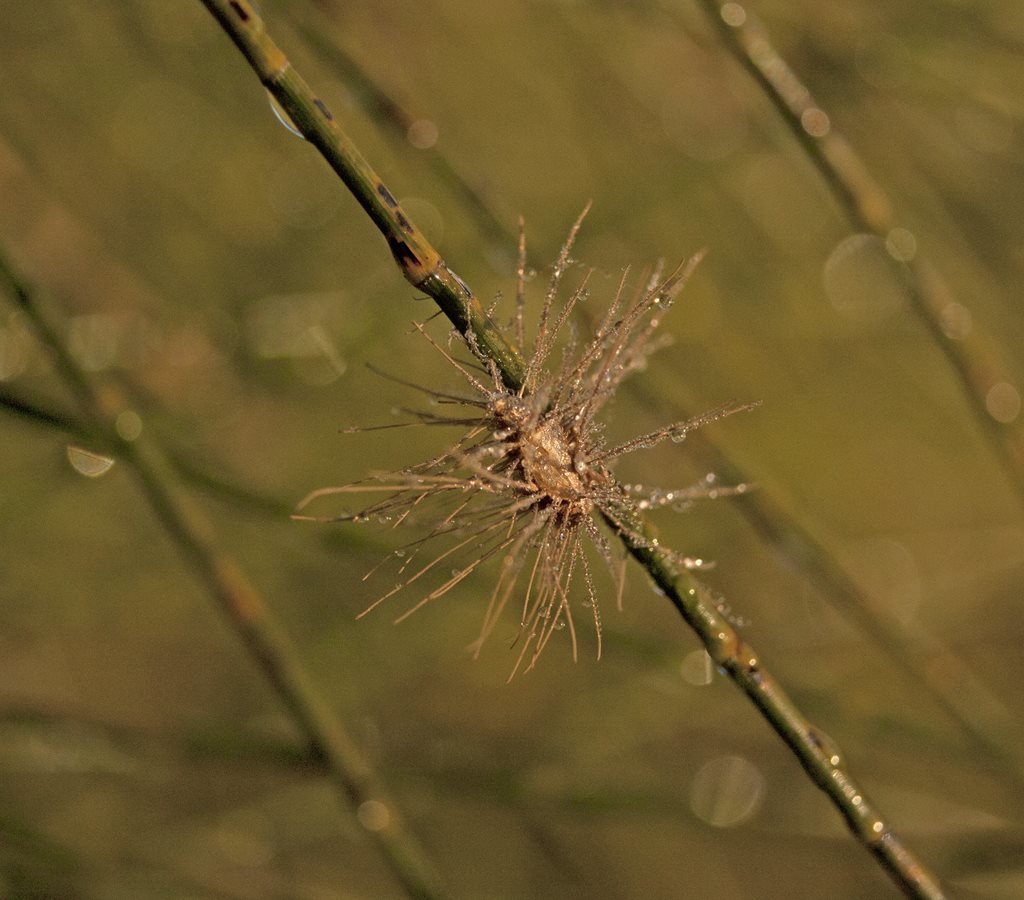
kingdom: Fungi
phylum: Ascomycota
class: Sordariomycetes
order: Hypocreales
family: Ophiocordycipitaceae
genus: Hirsutella
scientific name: Hirsutella citriformis
